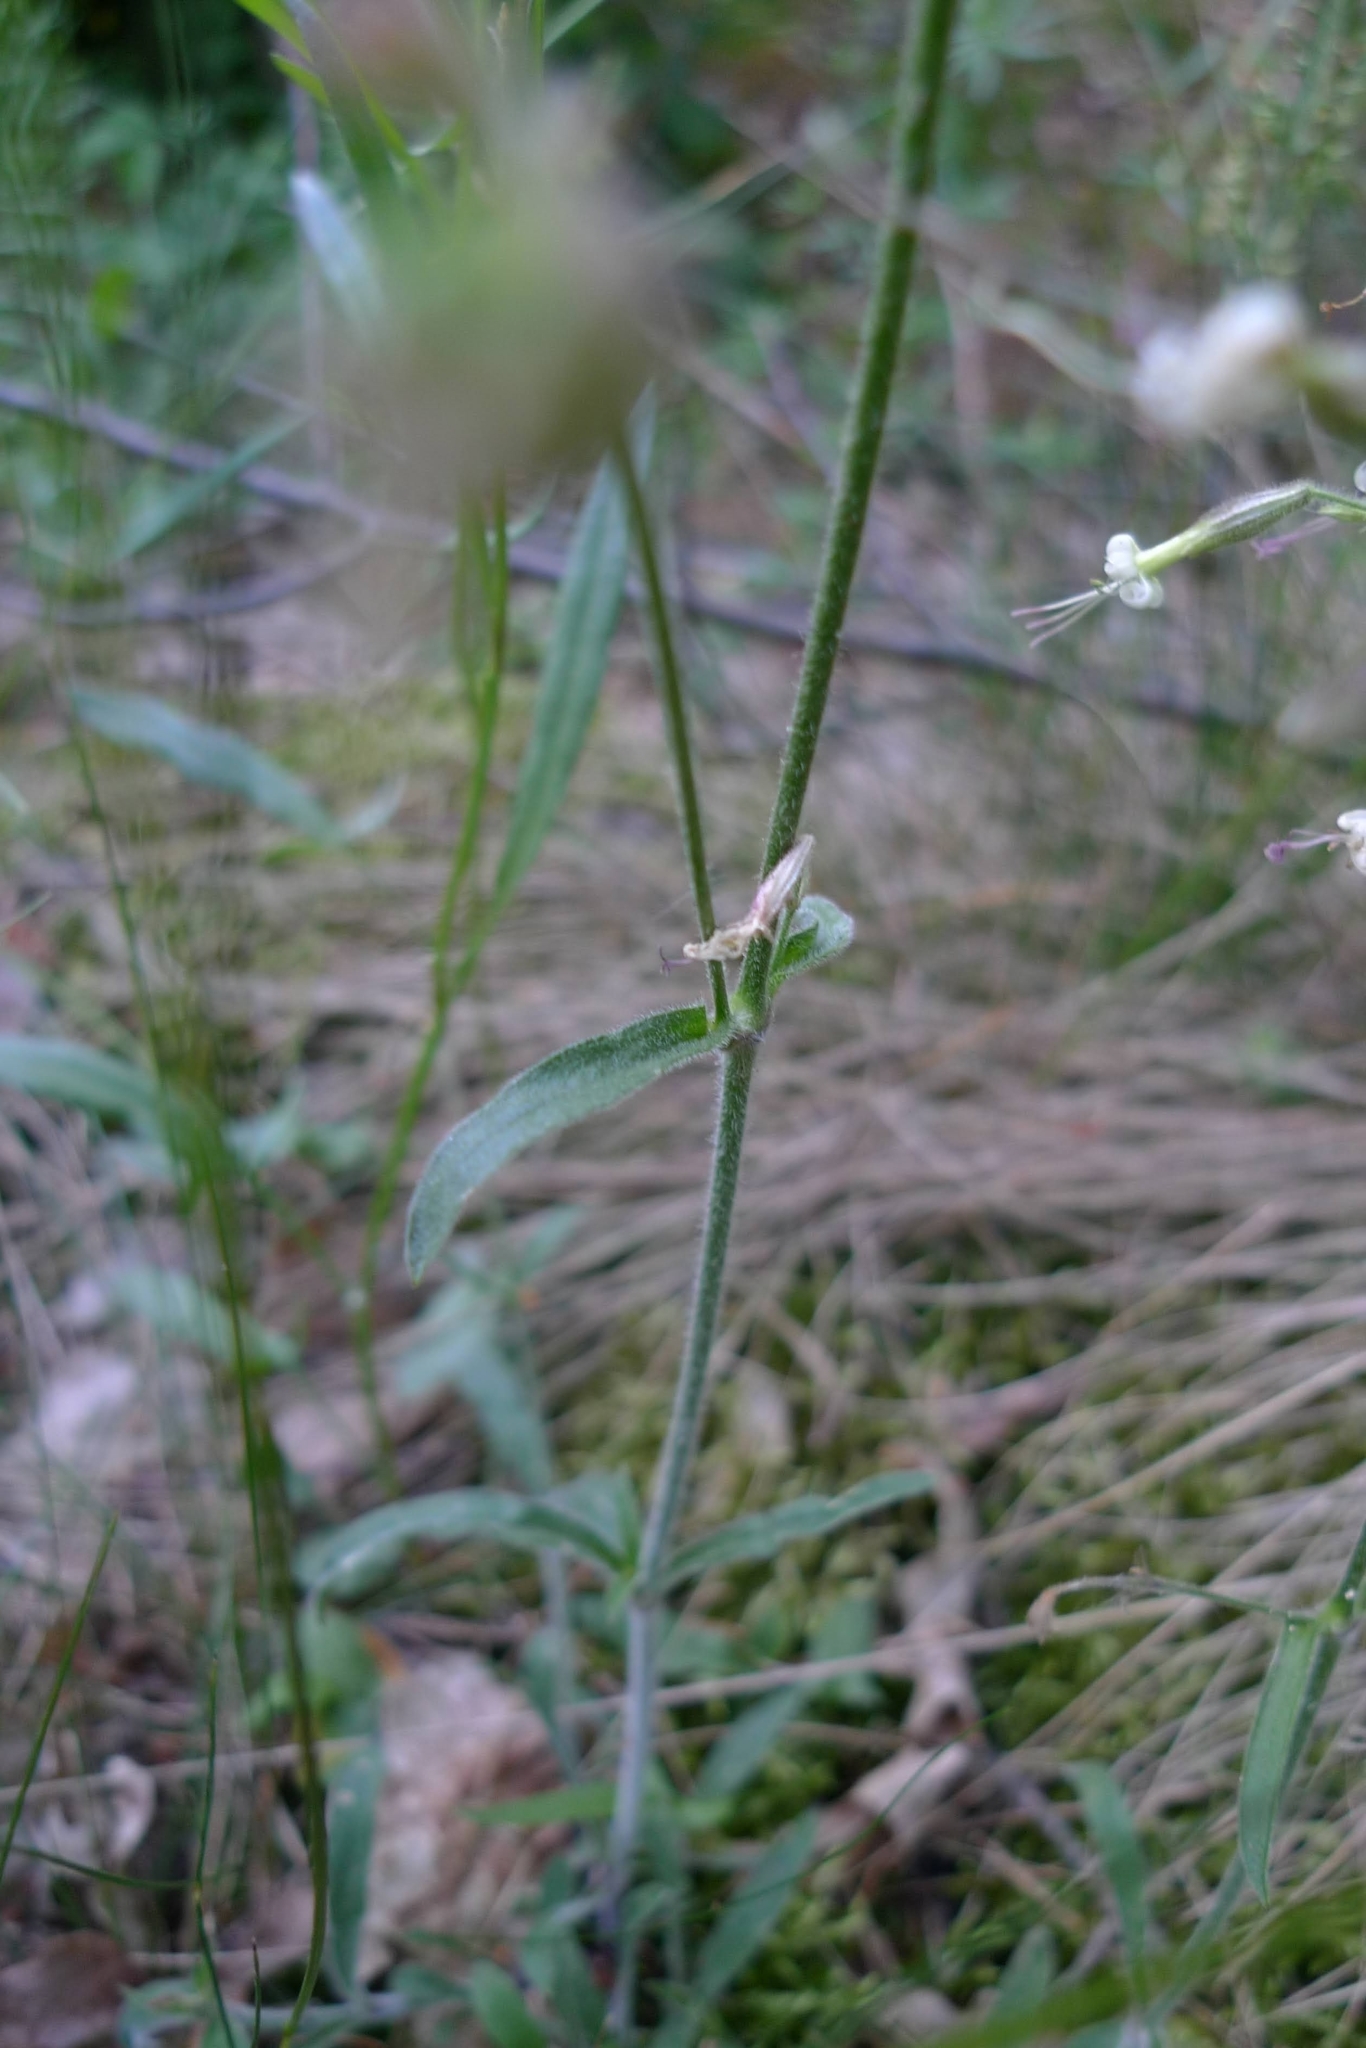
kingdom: Plantae
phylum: Tracheophyta
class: Magnoliopsida
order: Caryophyllales
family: Caryophyllaceae
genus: Silene
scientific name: Silene nutans
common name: Nottingham catchfly
